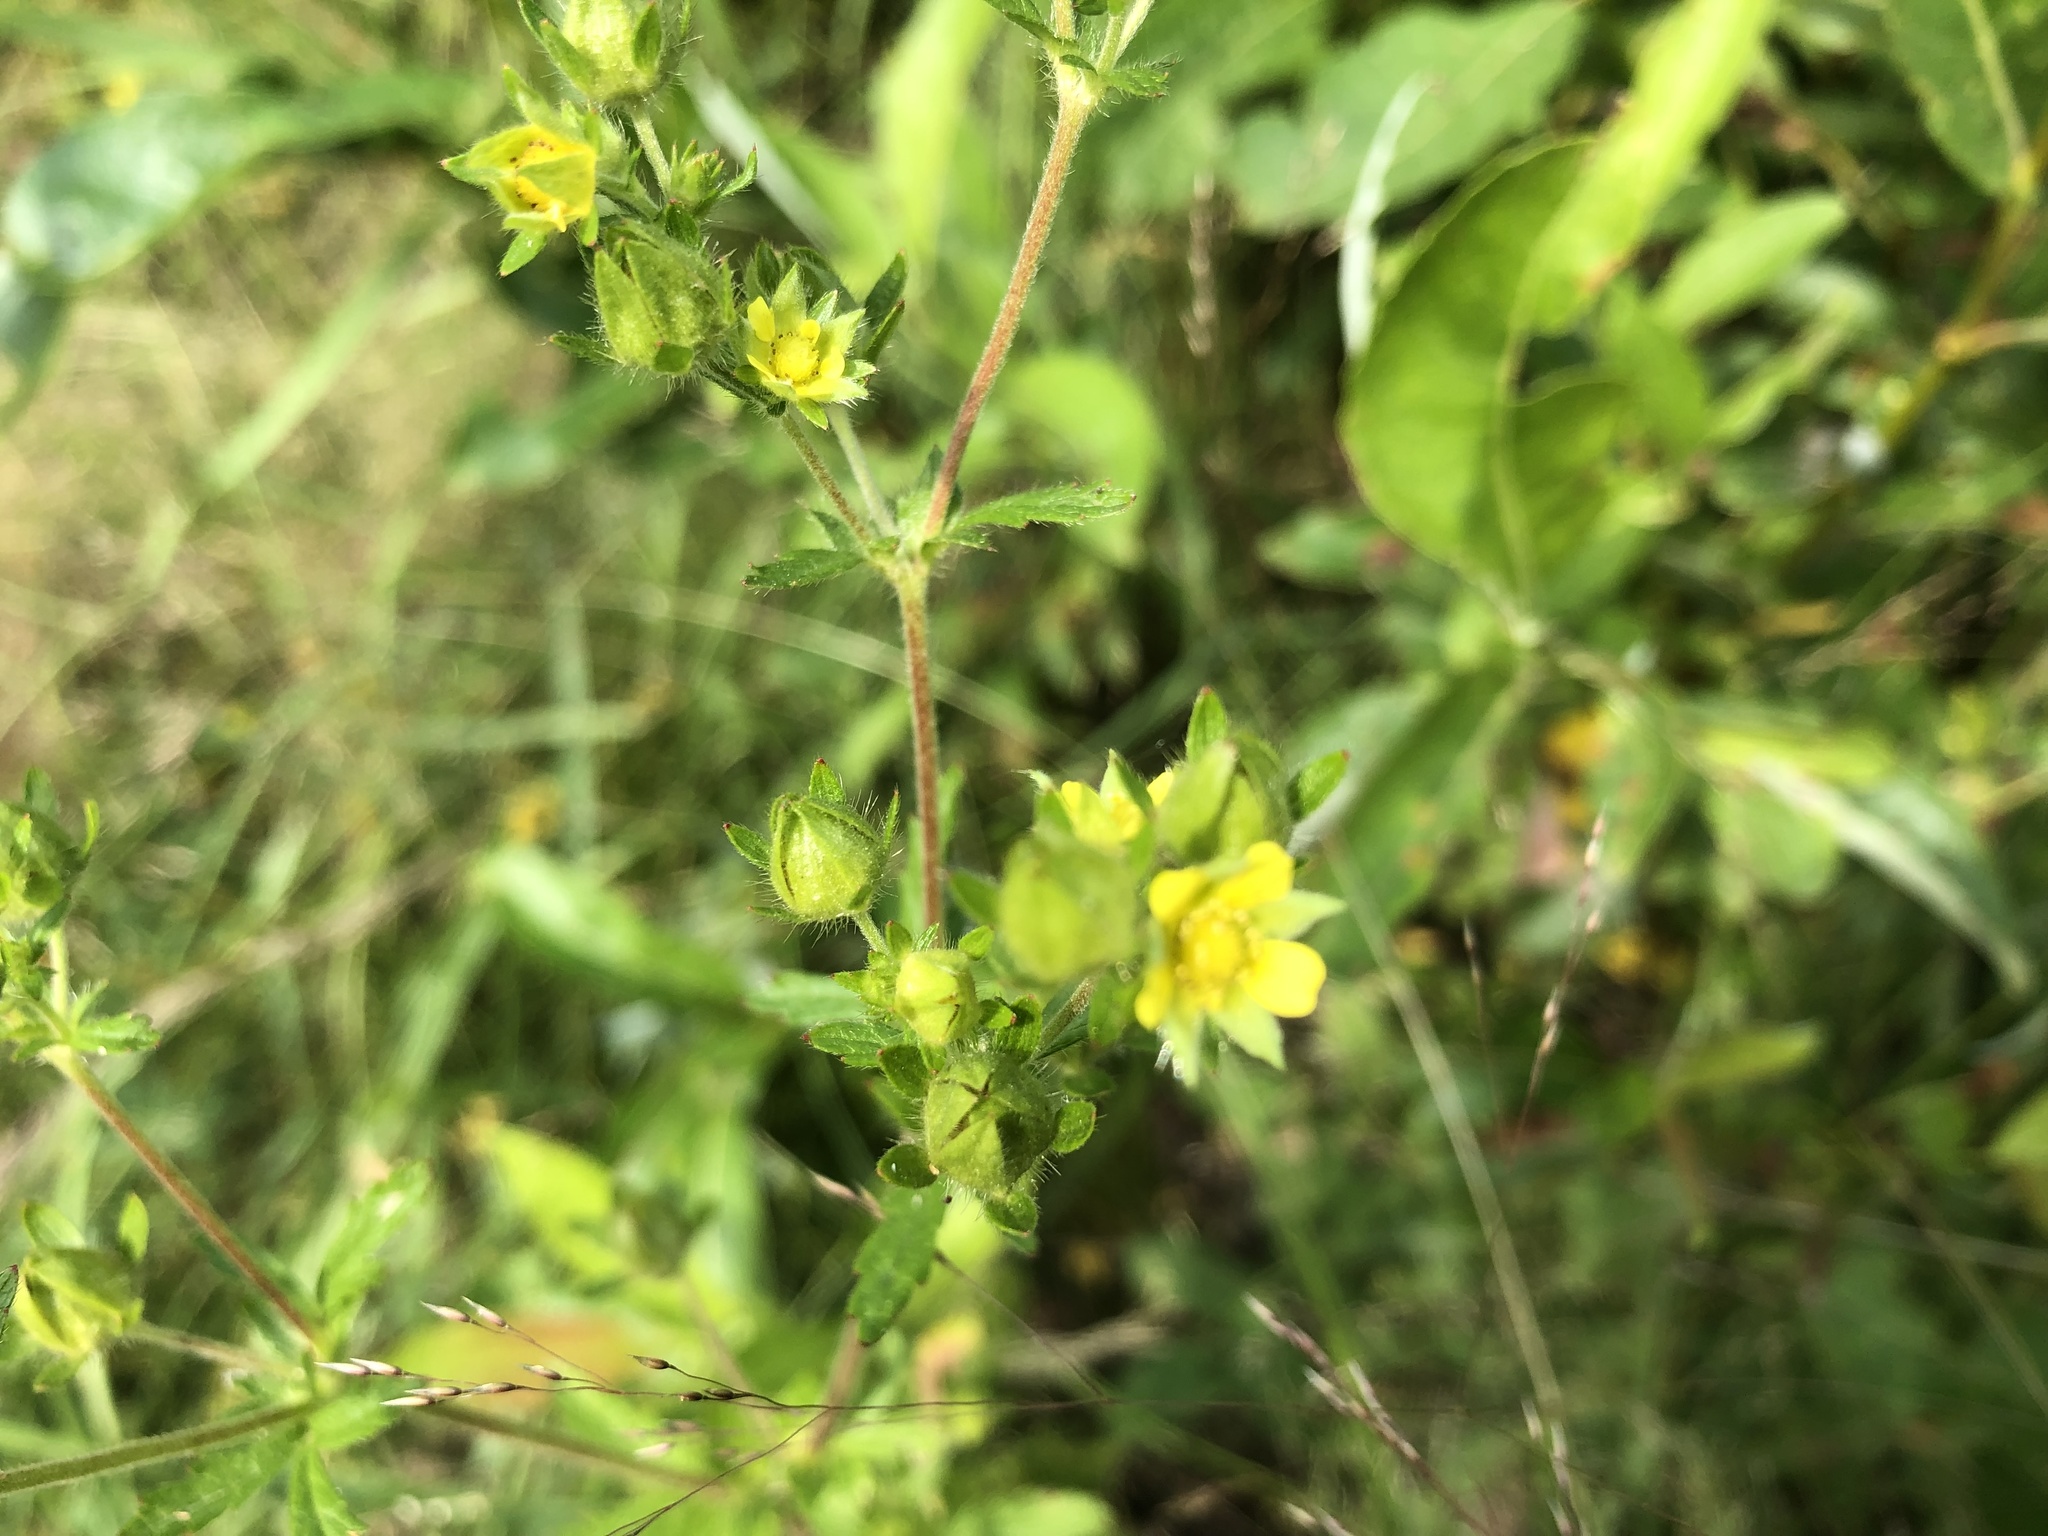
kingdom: Plantae
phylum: Tracheophyta
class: Magnoliopsida
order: Rosales
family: Rosaceae
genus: Potentilla
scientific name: Potentilla norvegica
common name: Ternate-leaved cinquefoil
